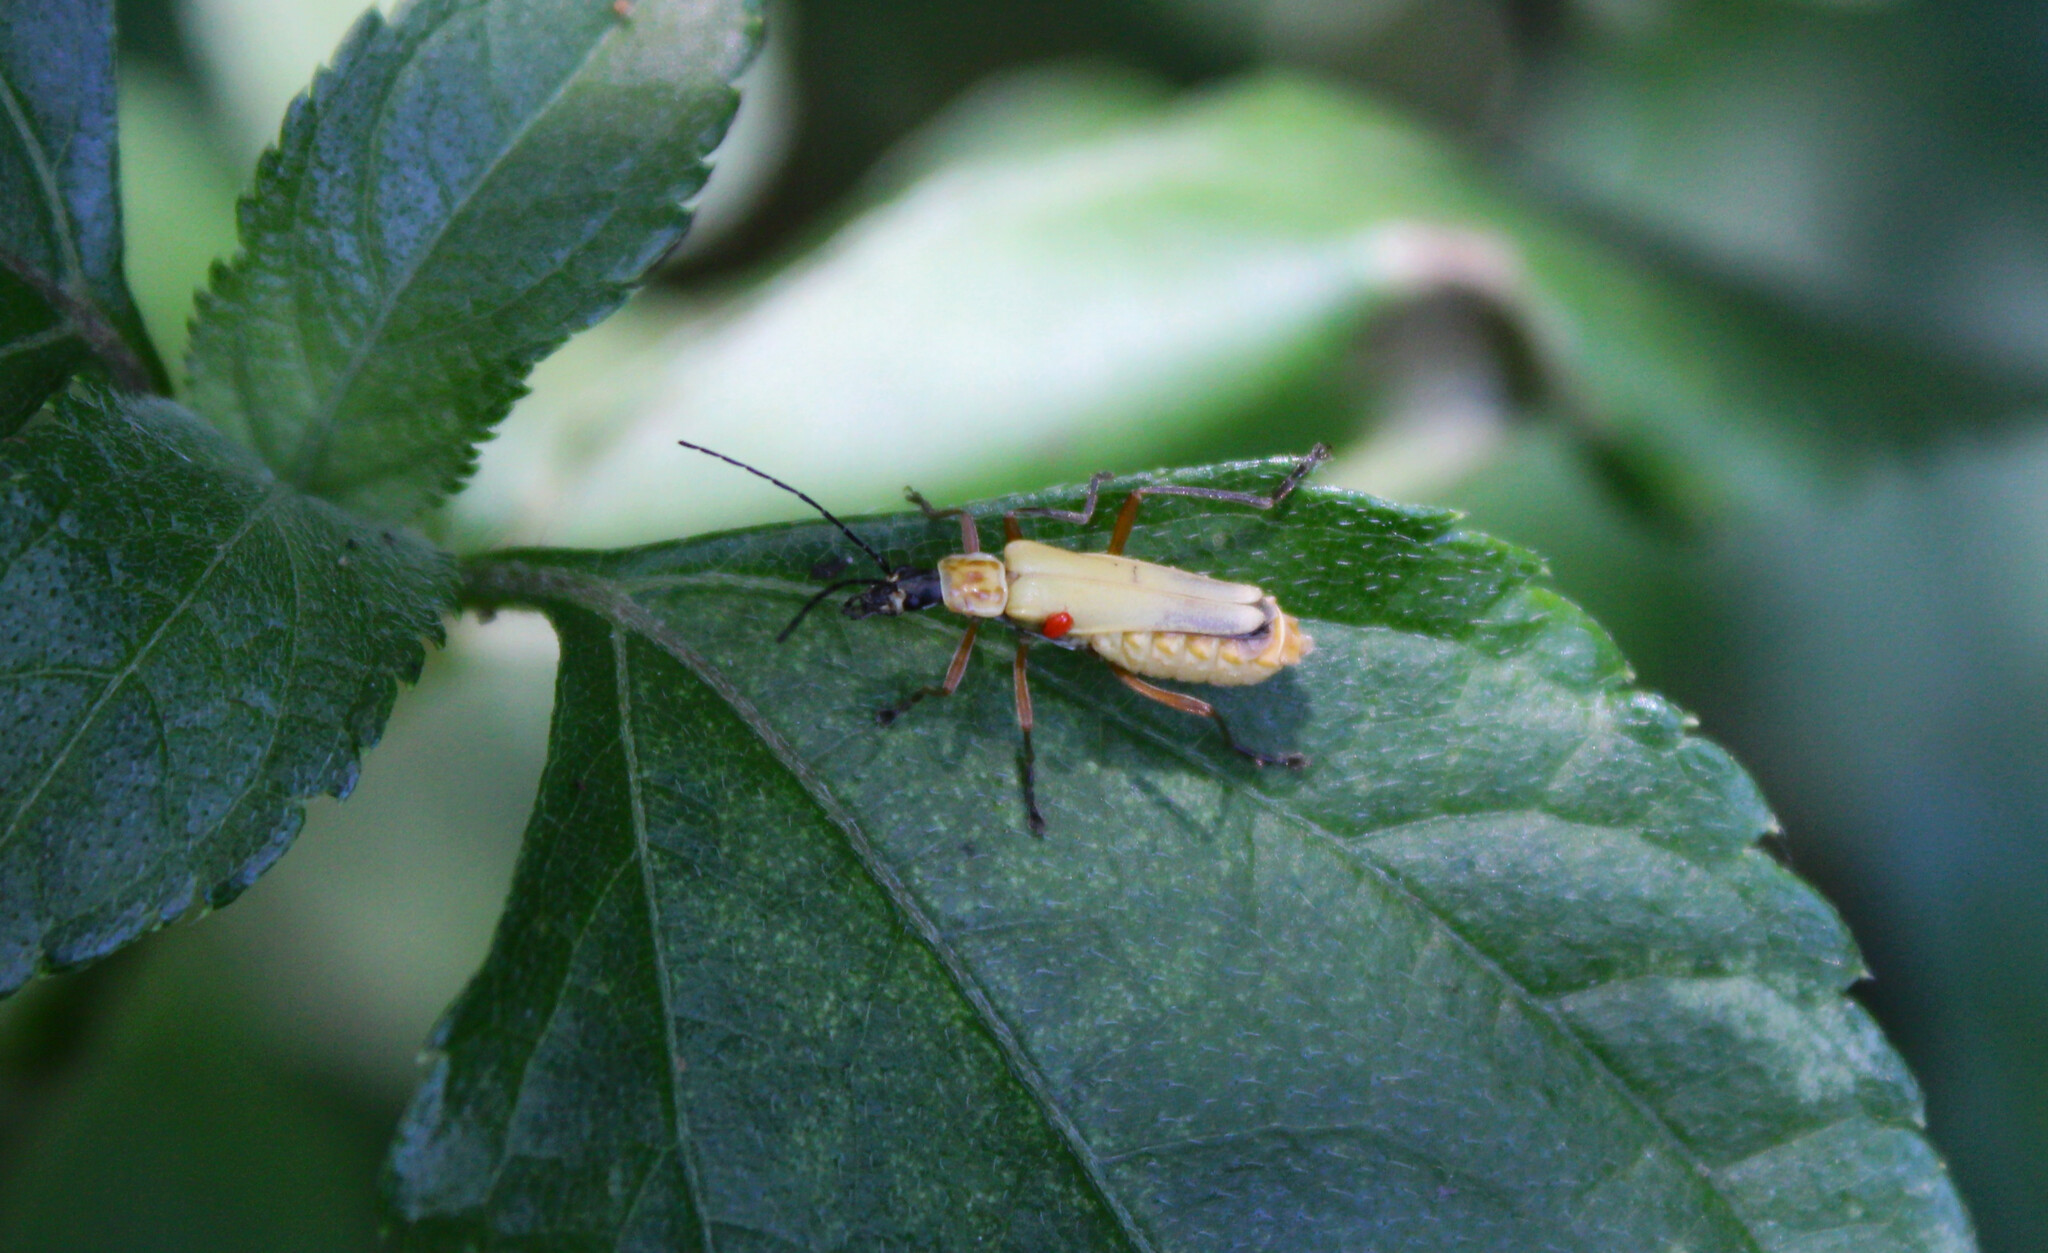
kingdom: Animalia
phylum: Arthropoda
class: Insecta
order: Coleoptera
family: Cantharidae
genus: Chauliognathus
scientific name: Chauliognathus
